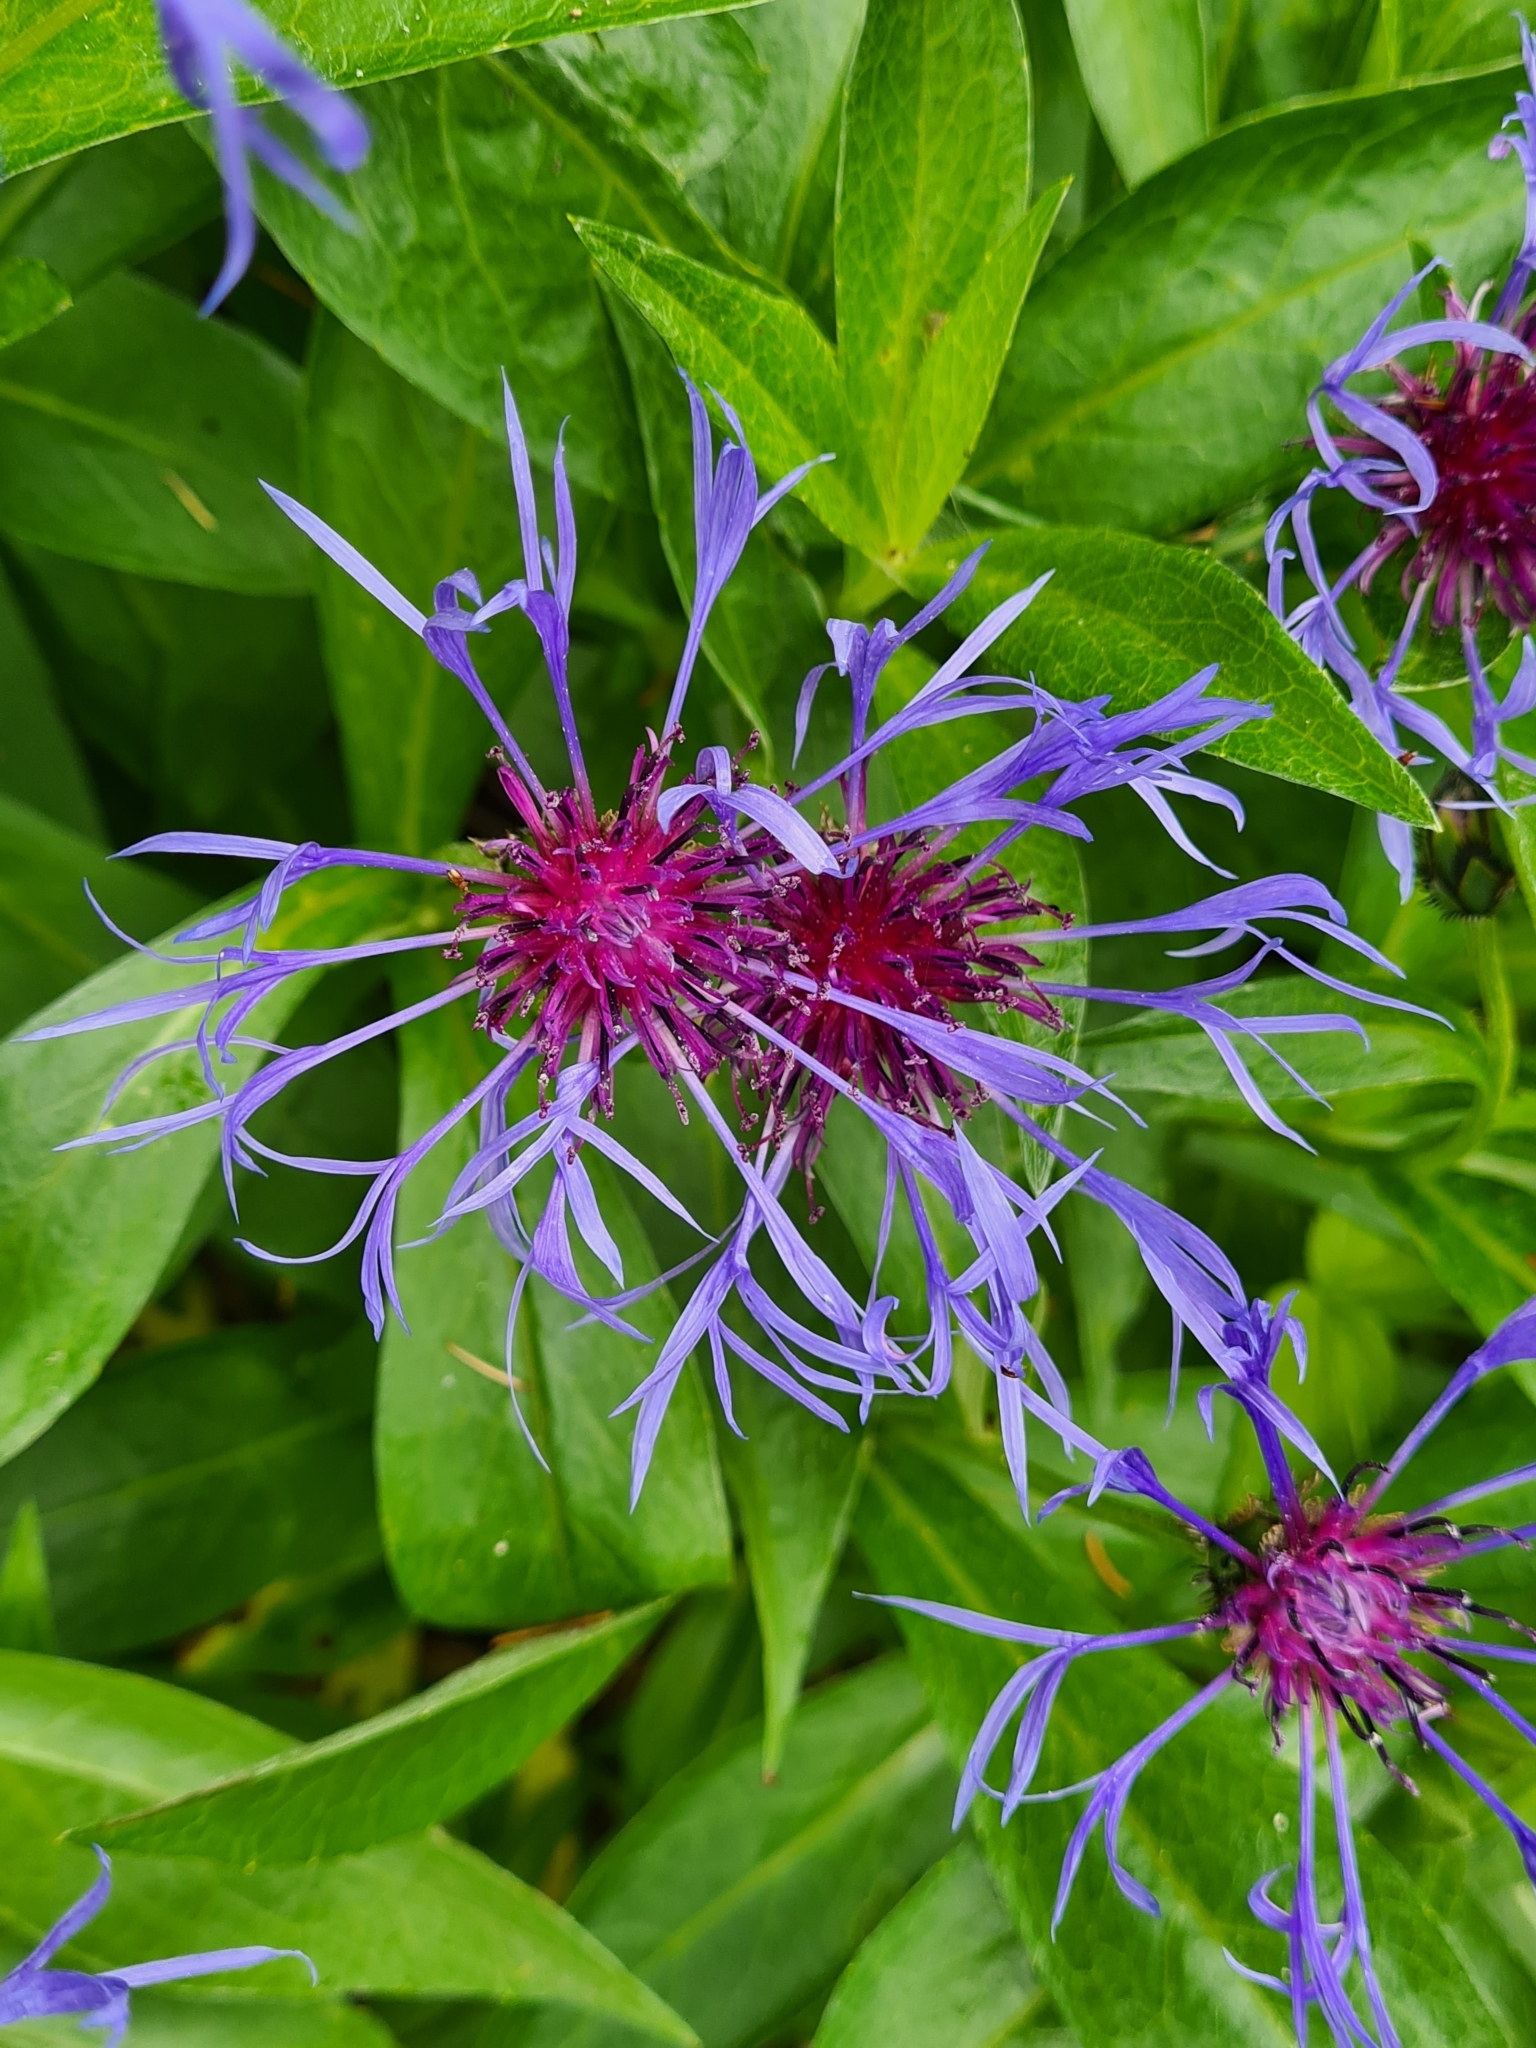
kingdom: Plantae
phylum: Tracheophyta
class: Magnoliopsida
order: Asterales
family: Asteraceae
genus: Centaurea
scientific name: Centaurea montana
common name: Perennial cornflower
